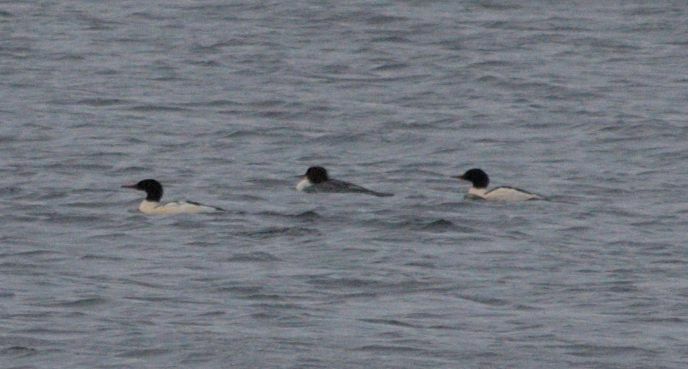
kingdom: Animalia
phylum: Chordata
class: Aves
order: Anseriformes
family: Anatidae
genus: Mergus
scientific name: Mergus merganser
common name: Common merganser
